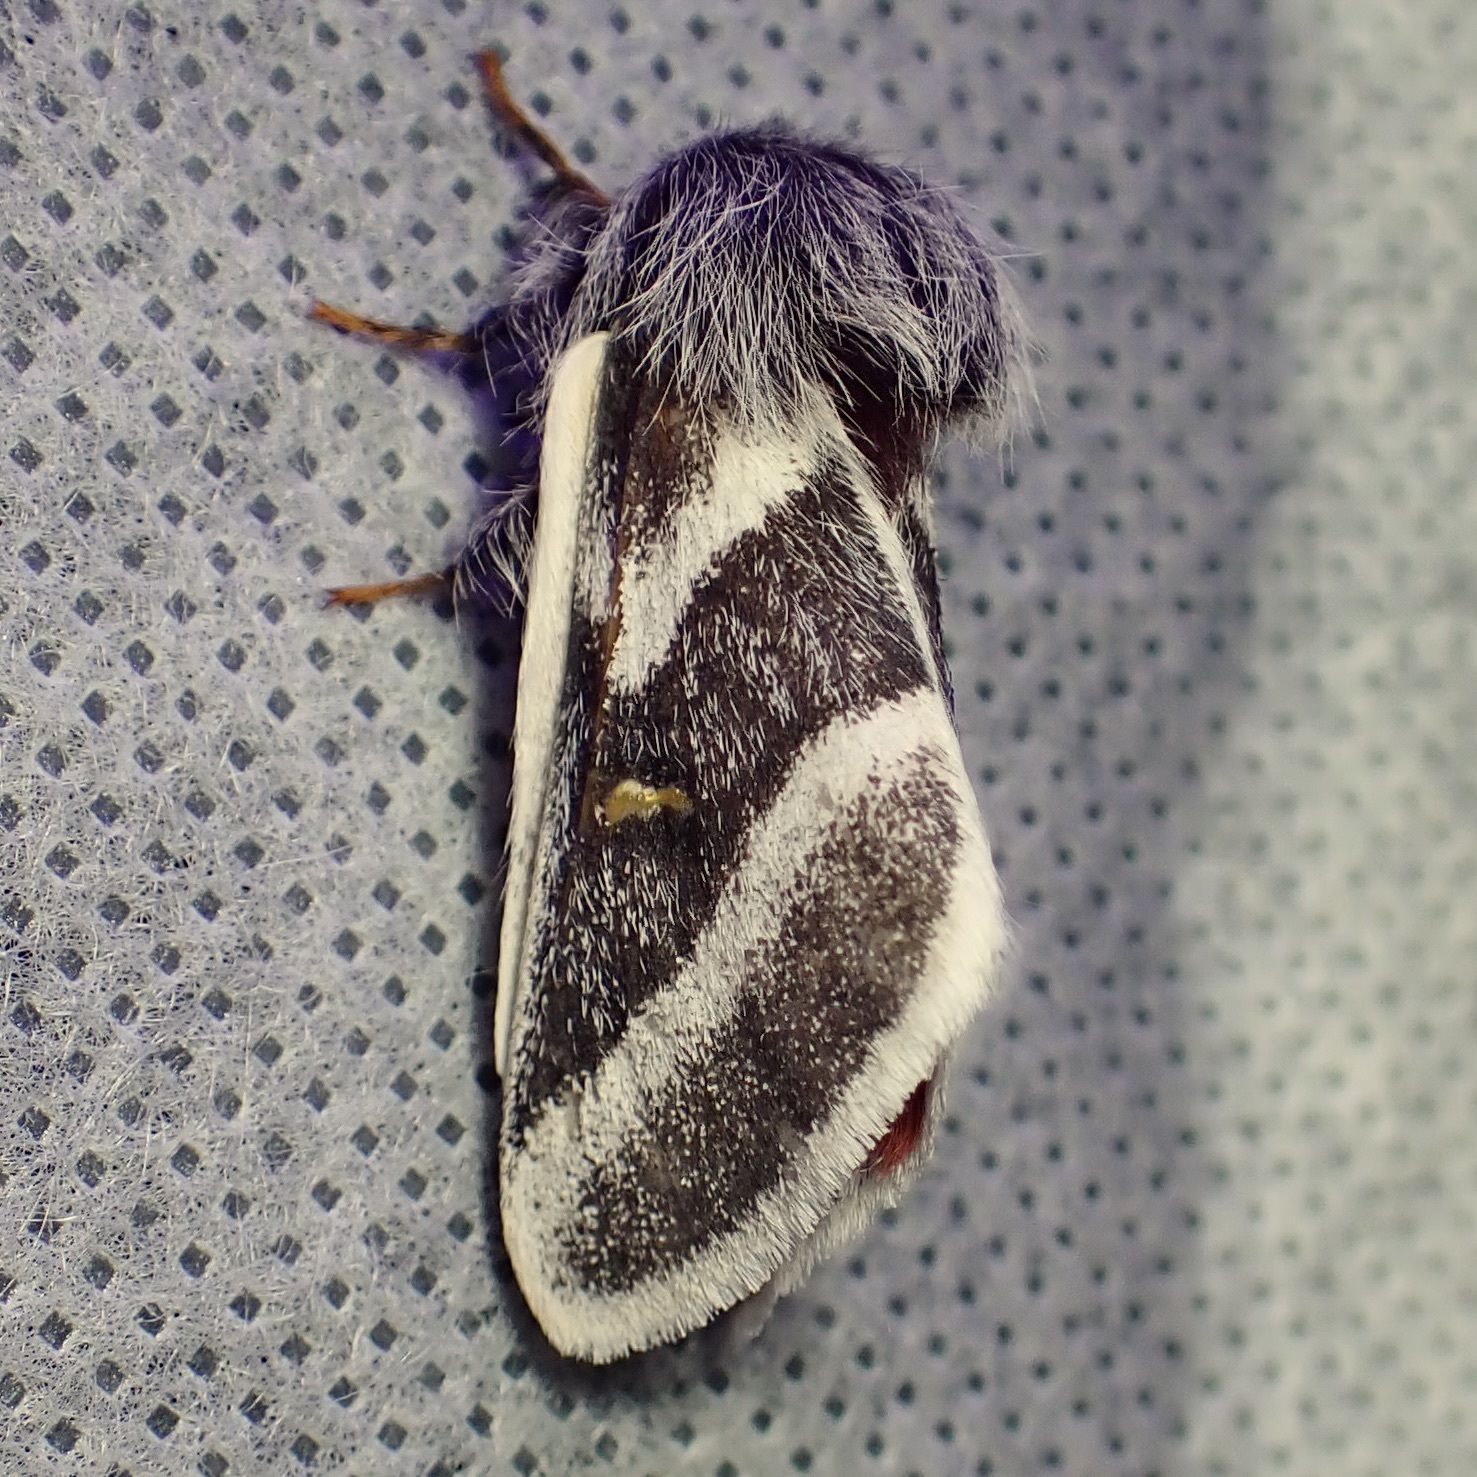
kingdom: Animalia
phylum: Arthropoda
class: Insecta
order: Lepidoptera
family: Saturniidae
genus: Hemileuca
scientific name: Hemileuca tricolor
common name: Tricolor buckmoth
